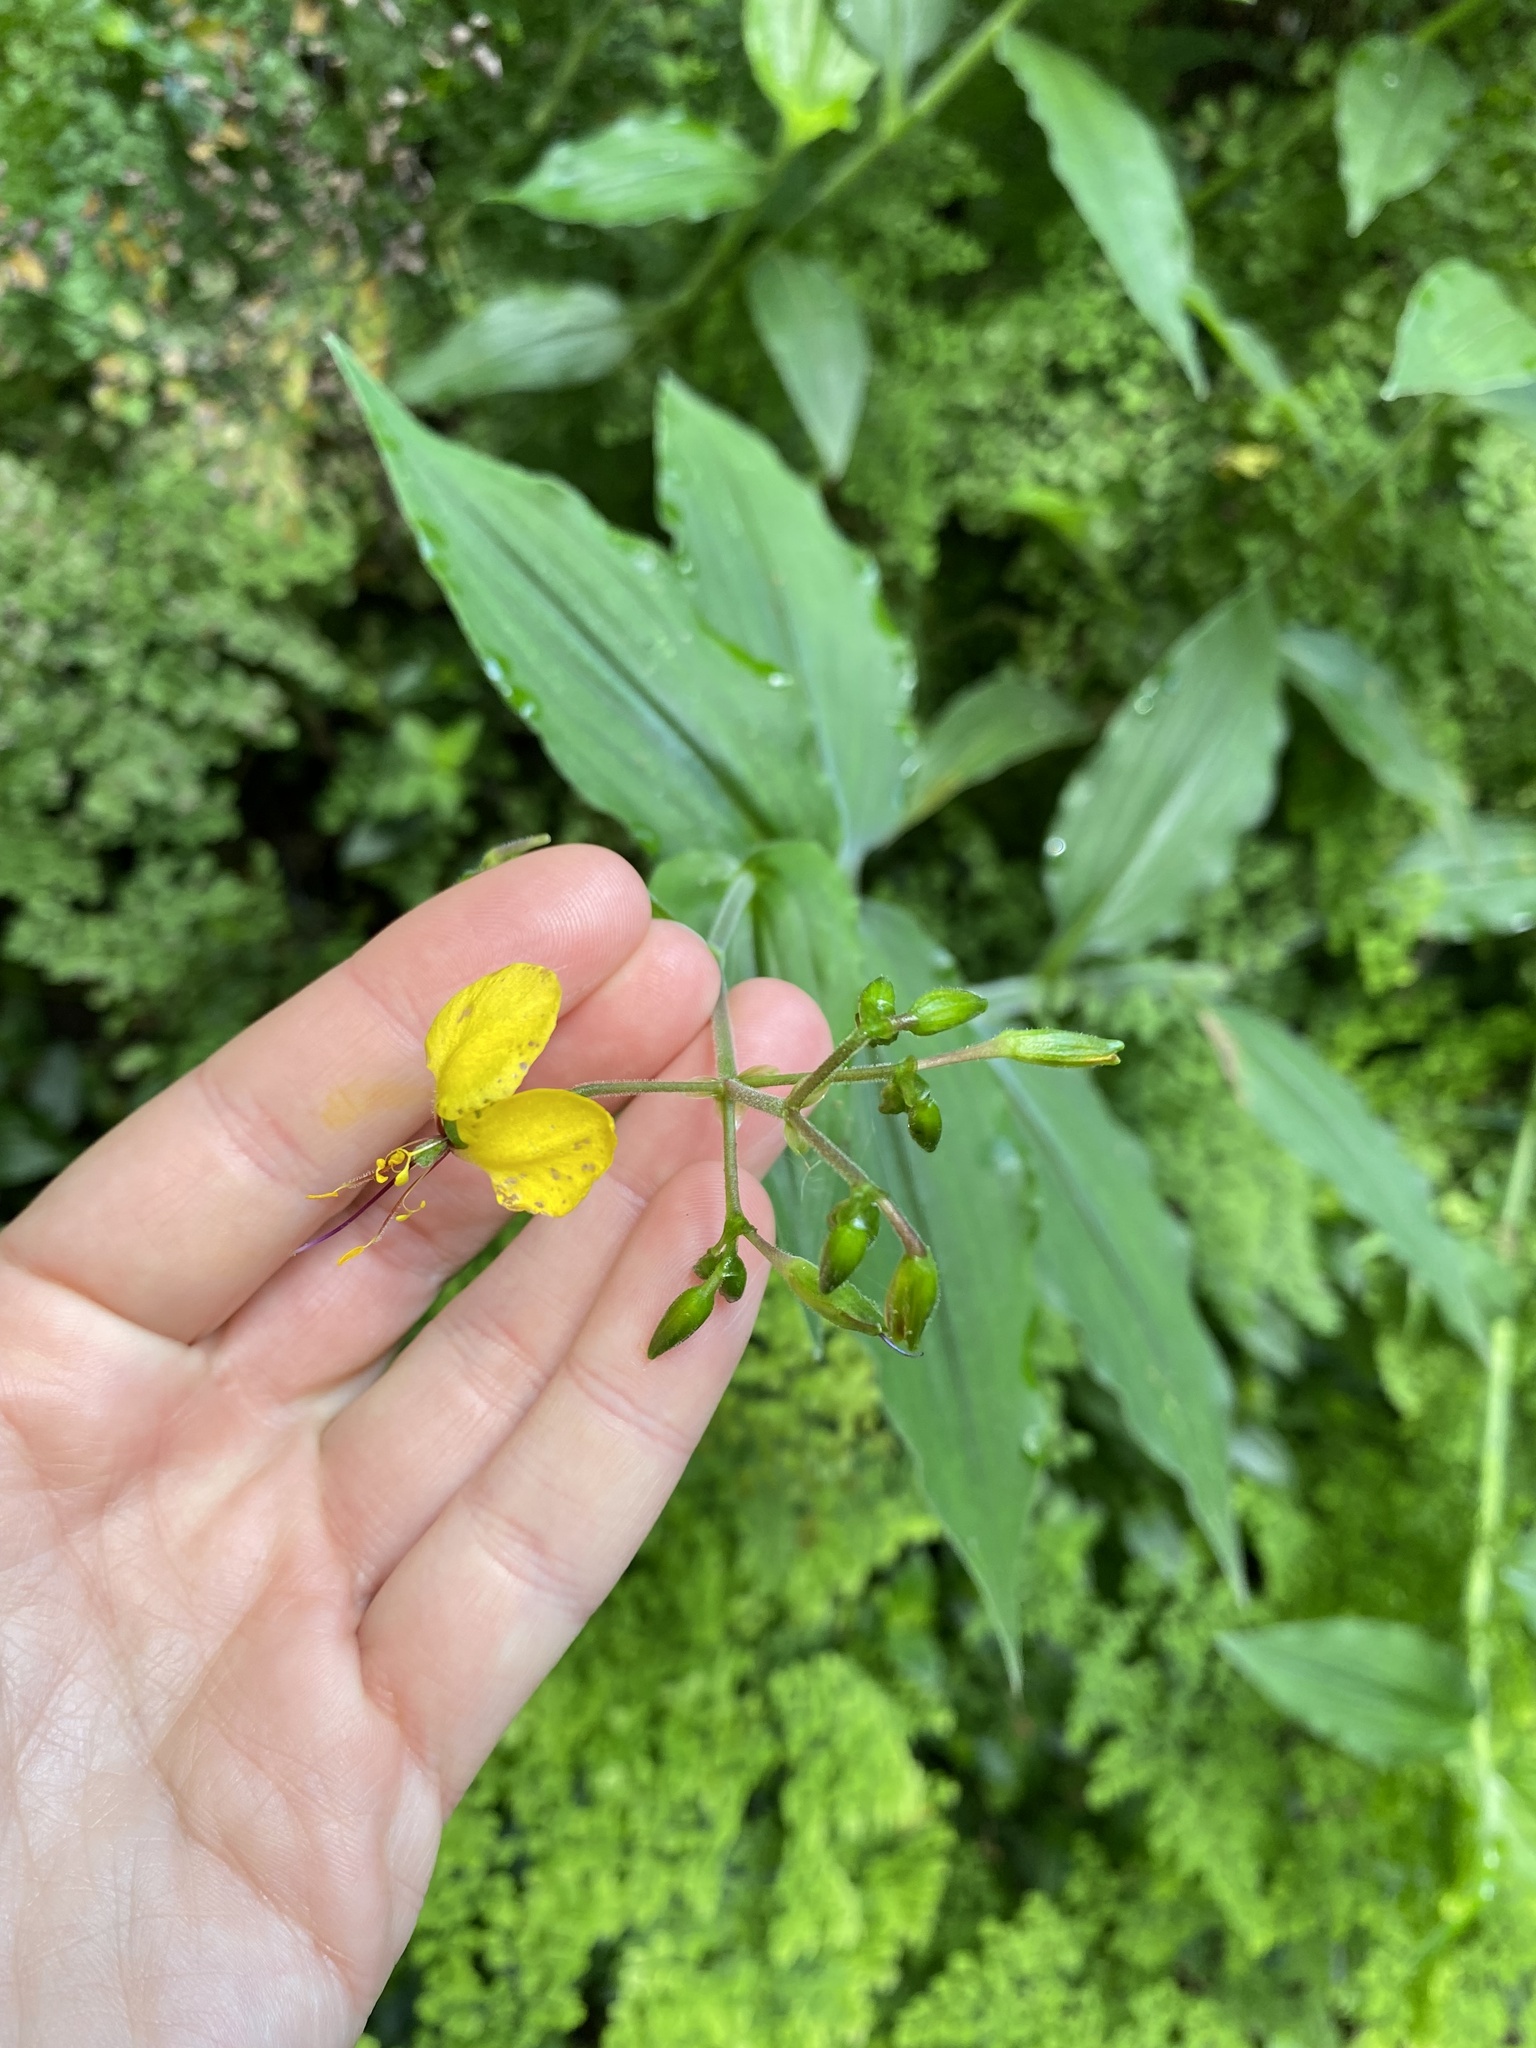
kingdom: Plantae
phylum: Tracheophyta
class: Liliopsida
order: Commelinales
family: Commelinaceae
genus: Aneilema
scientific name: Aneilema aequinoctiale
